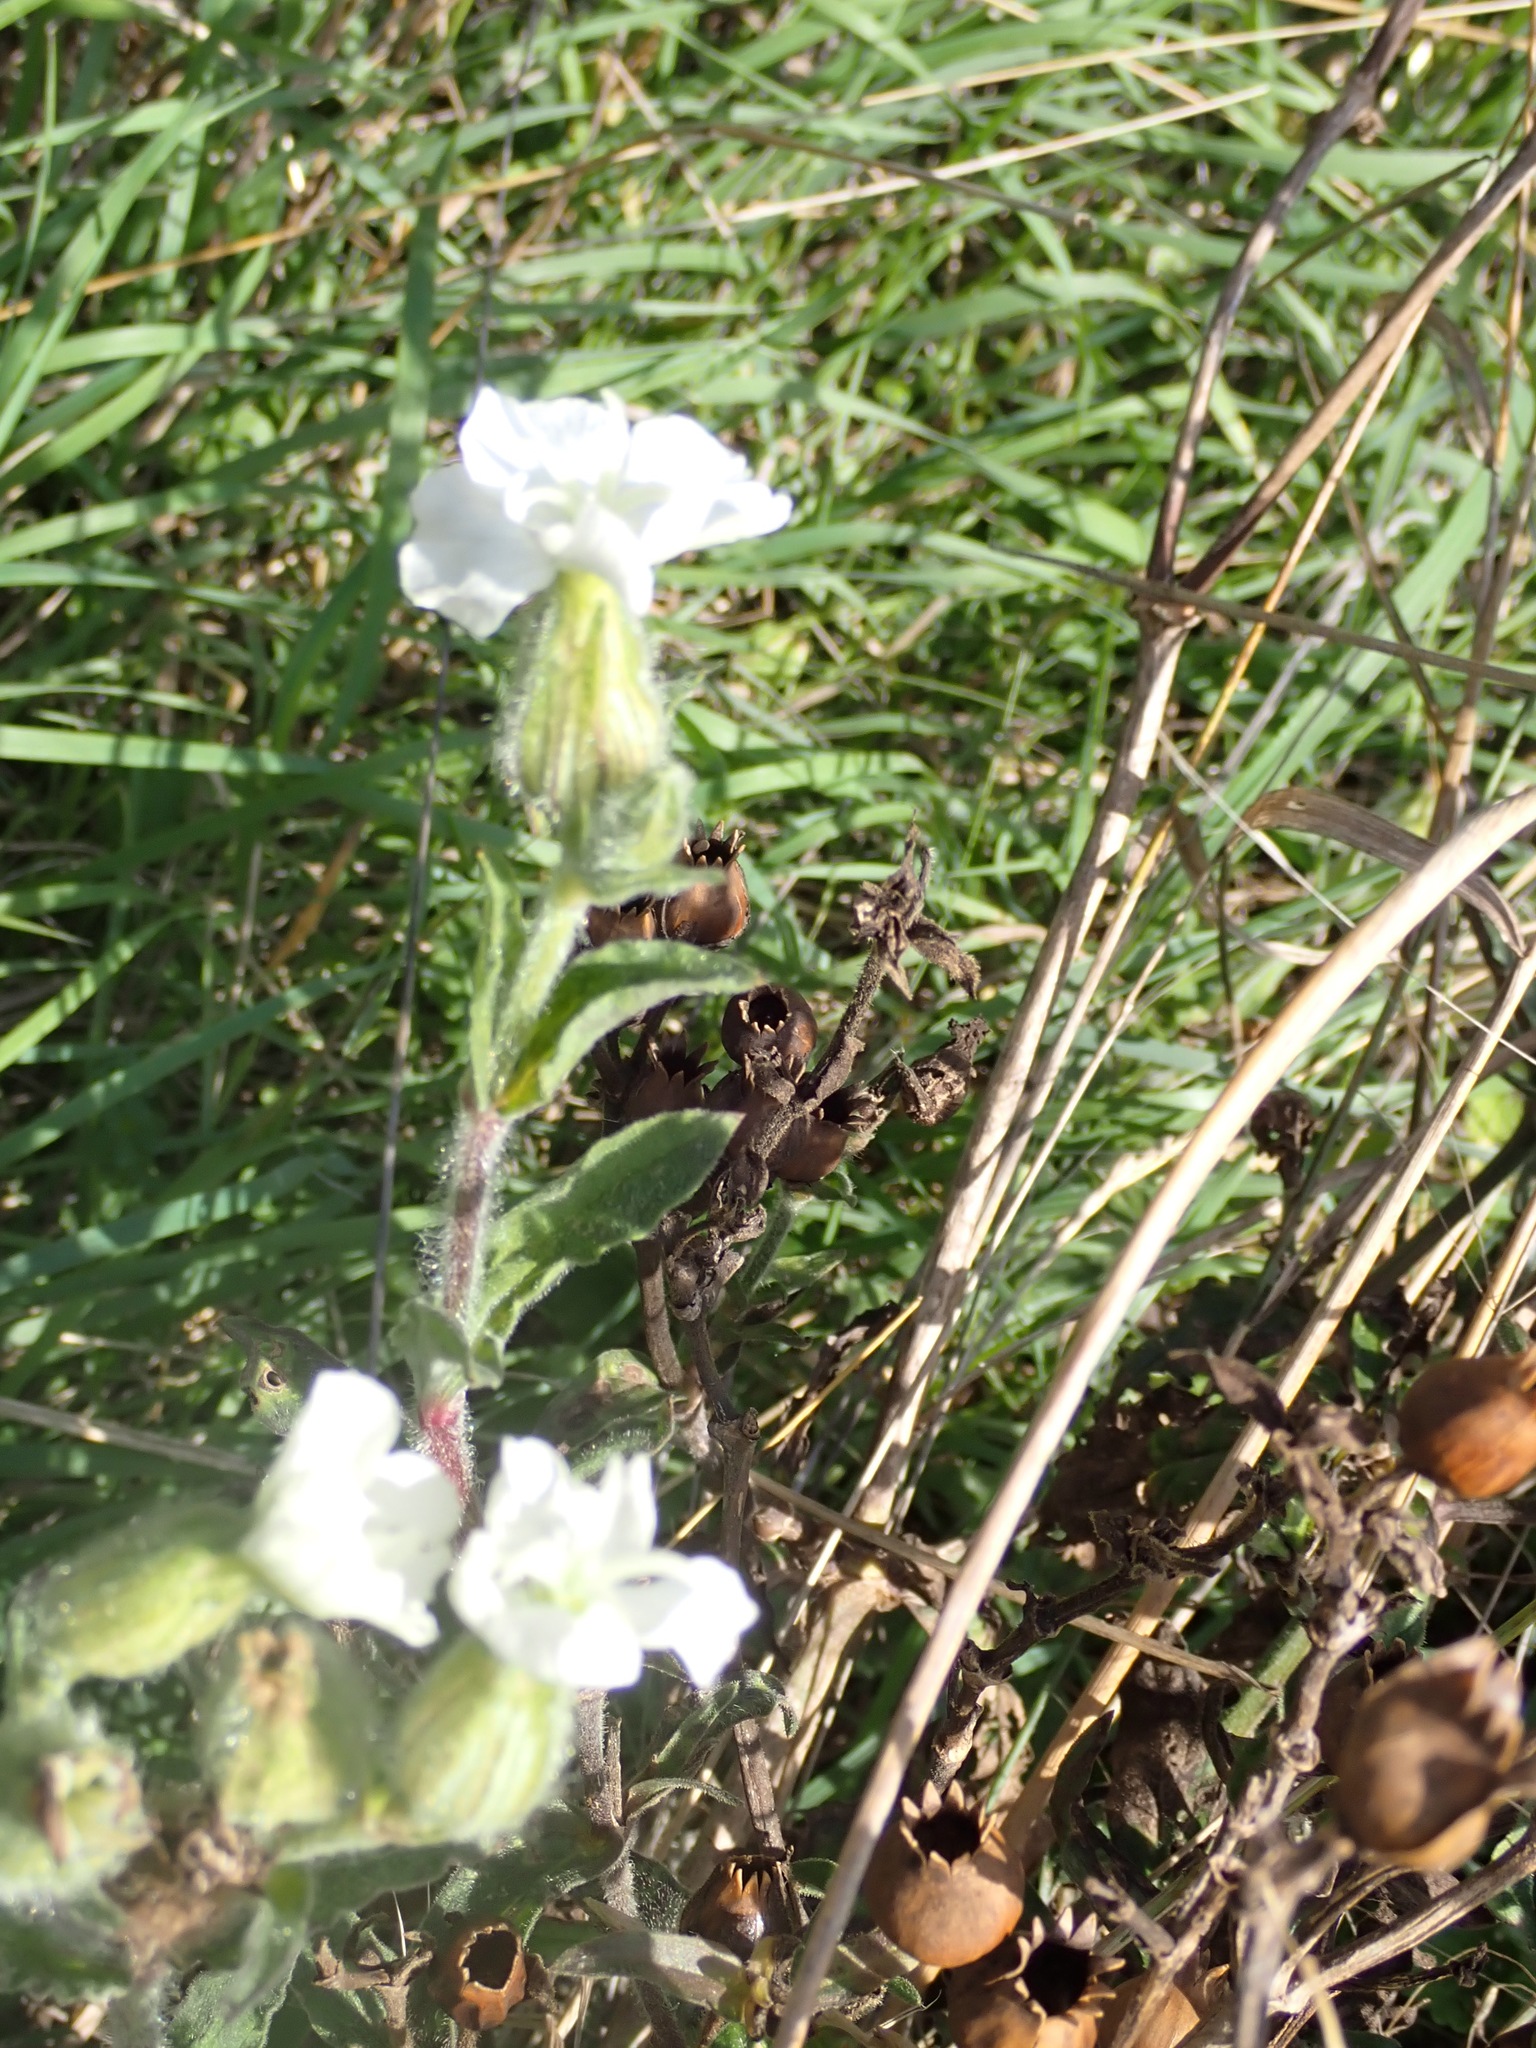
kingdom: Plantae
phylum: Tracheophyta
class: Magnoliopsida
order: Caryophyllales
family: Caryophyllaceae
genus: Silene
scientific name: Silene latifolia
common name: White campion
